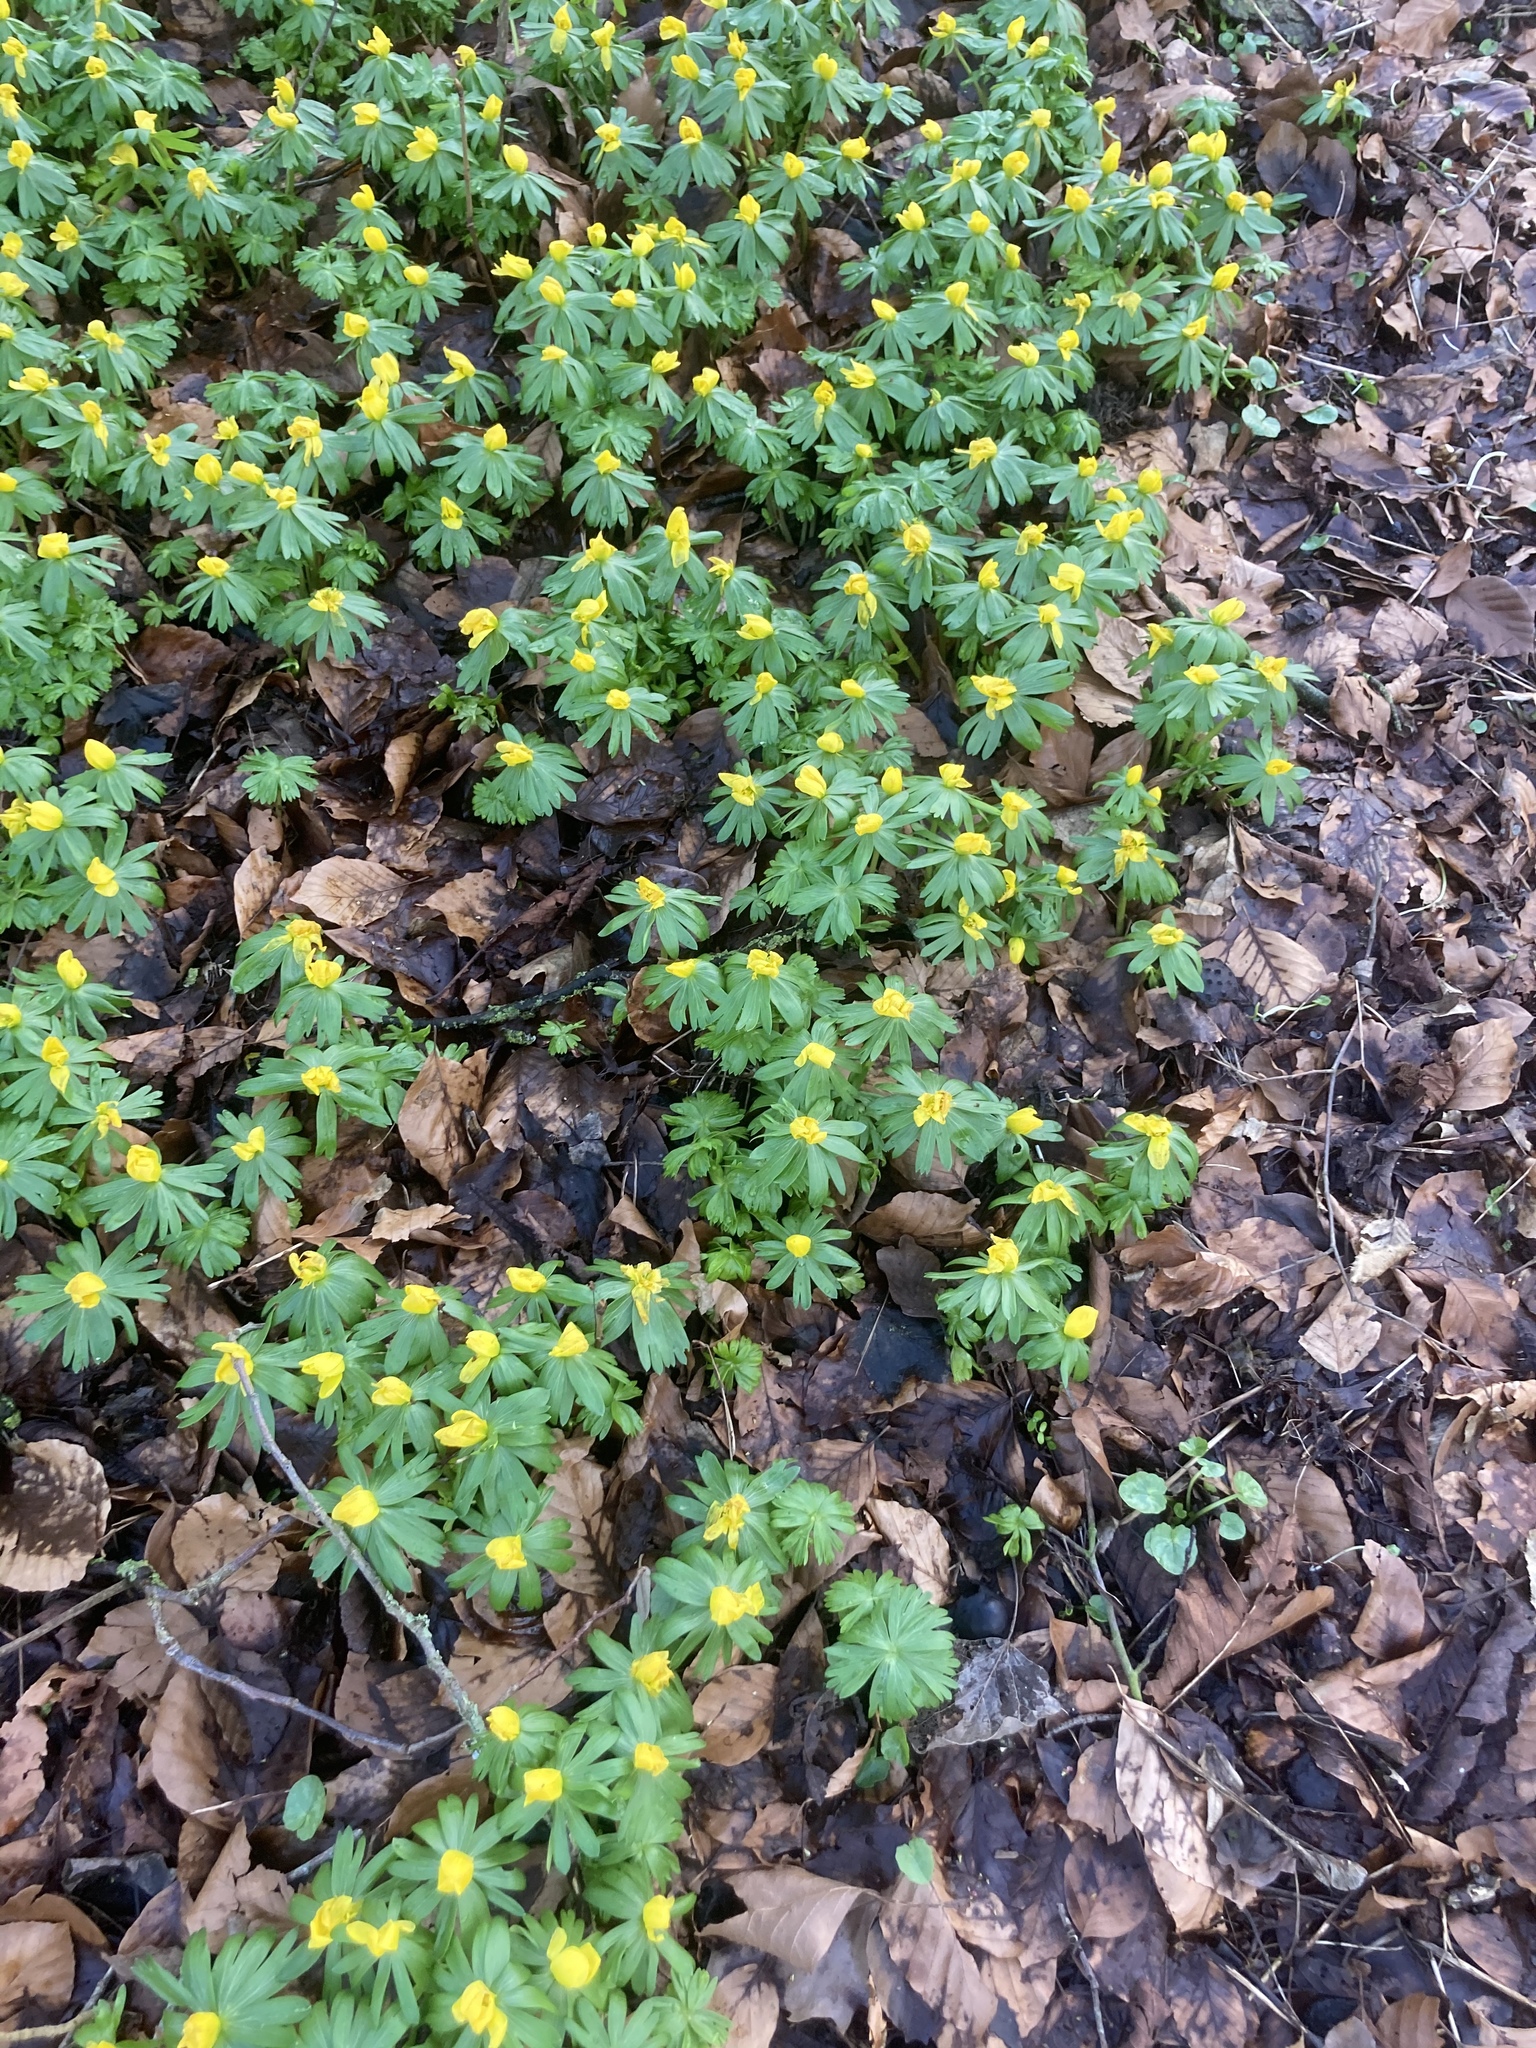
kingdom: Plantae
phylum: Tracheophyta
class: Magnoliopsida
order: Ranunculales
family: Ranunculaceae
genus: Eranthis
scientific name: Eranthis hyemalis
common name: Winter aconite
